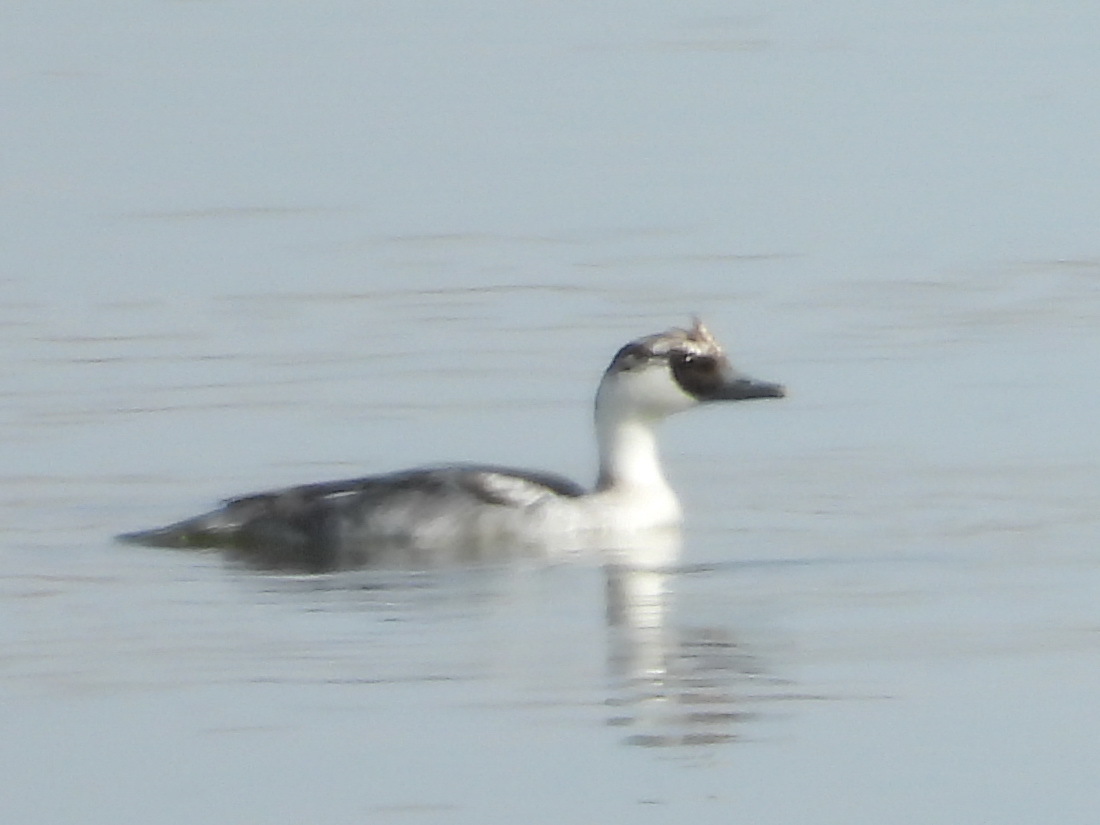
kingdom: Animalia
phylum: Chordata
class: Aves
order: Anseriformes
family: Anatidae
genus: Mergellus
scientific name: Mergellus albellus
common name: Smew
